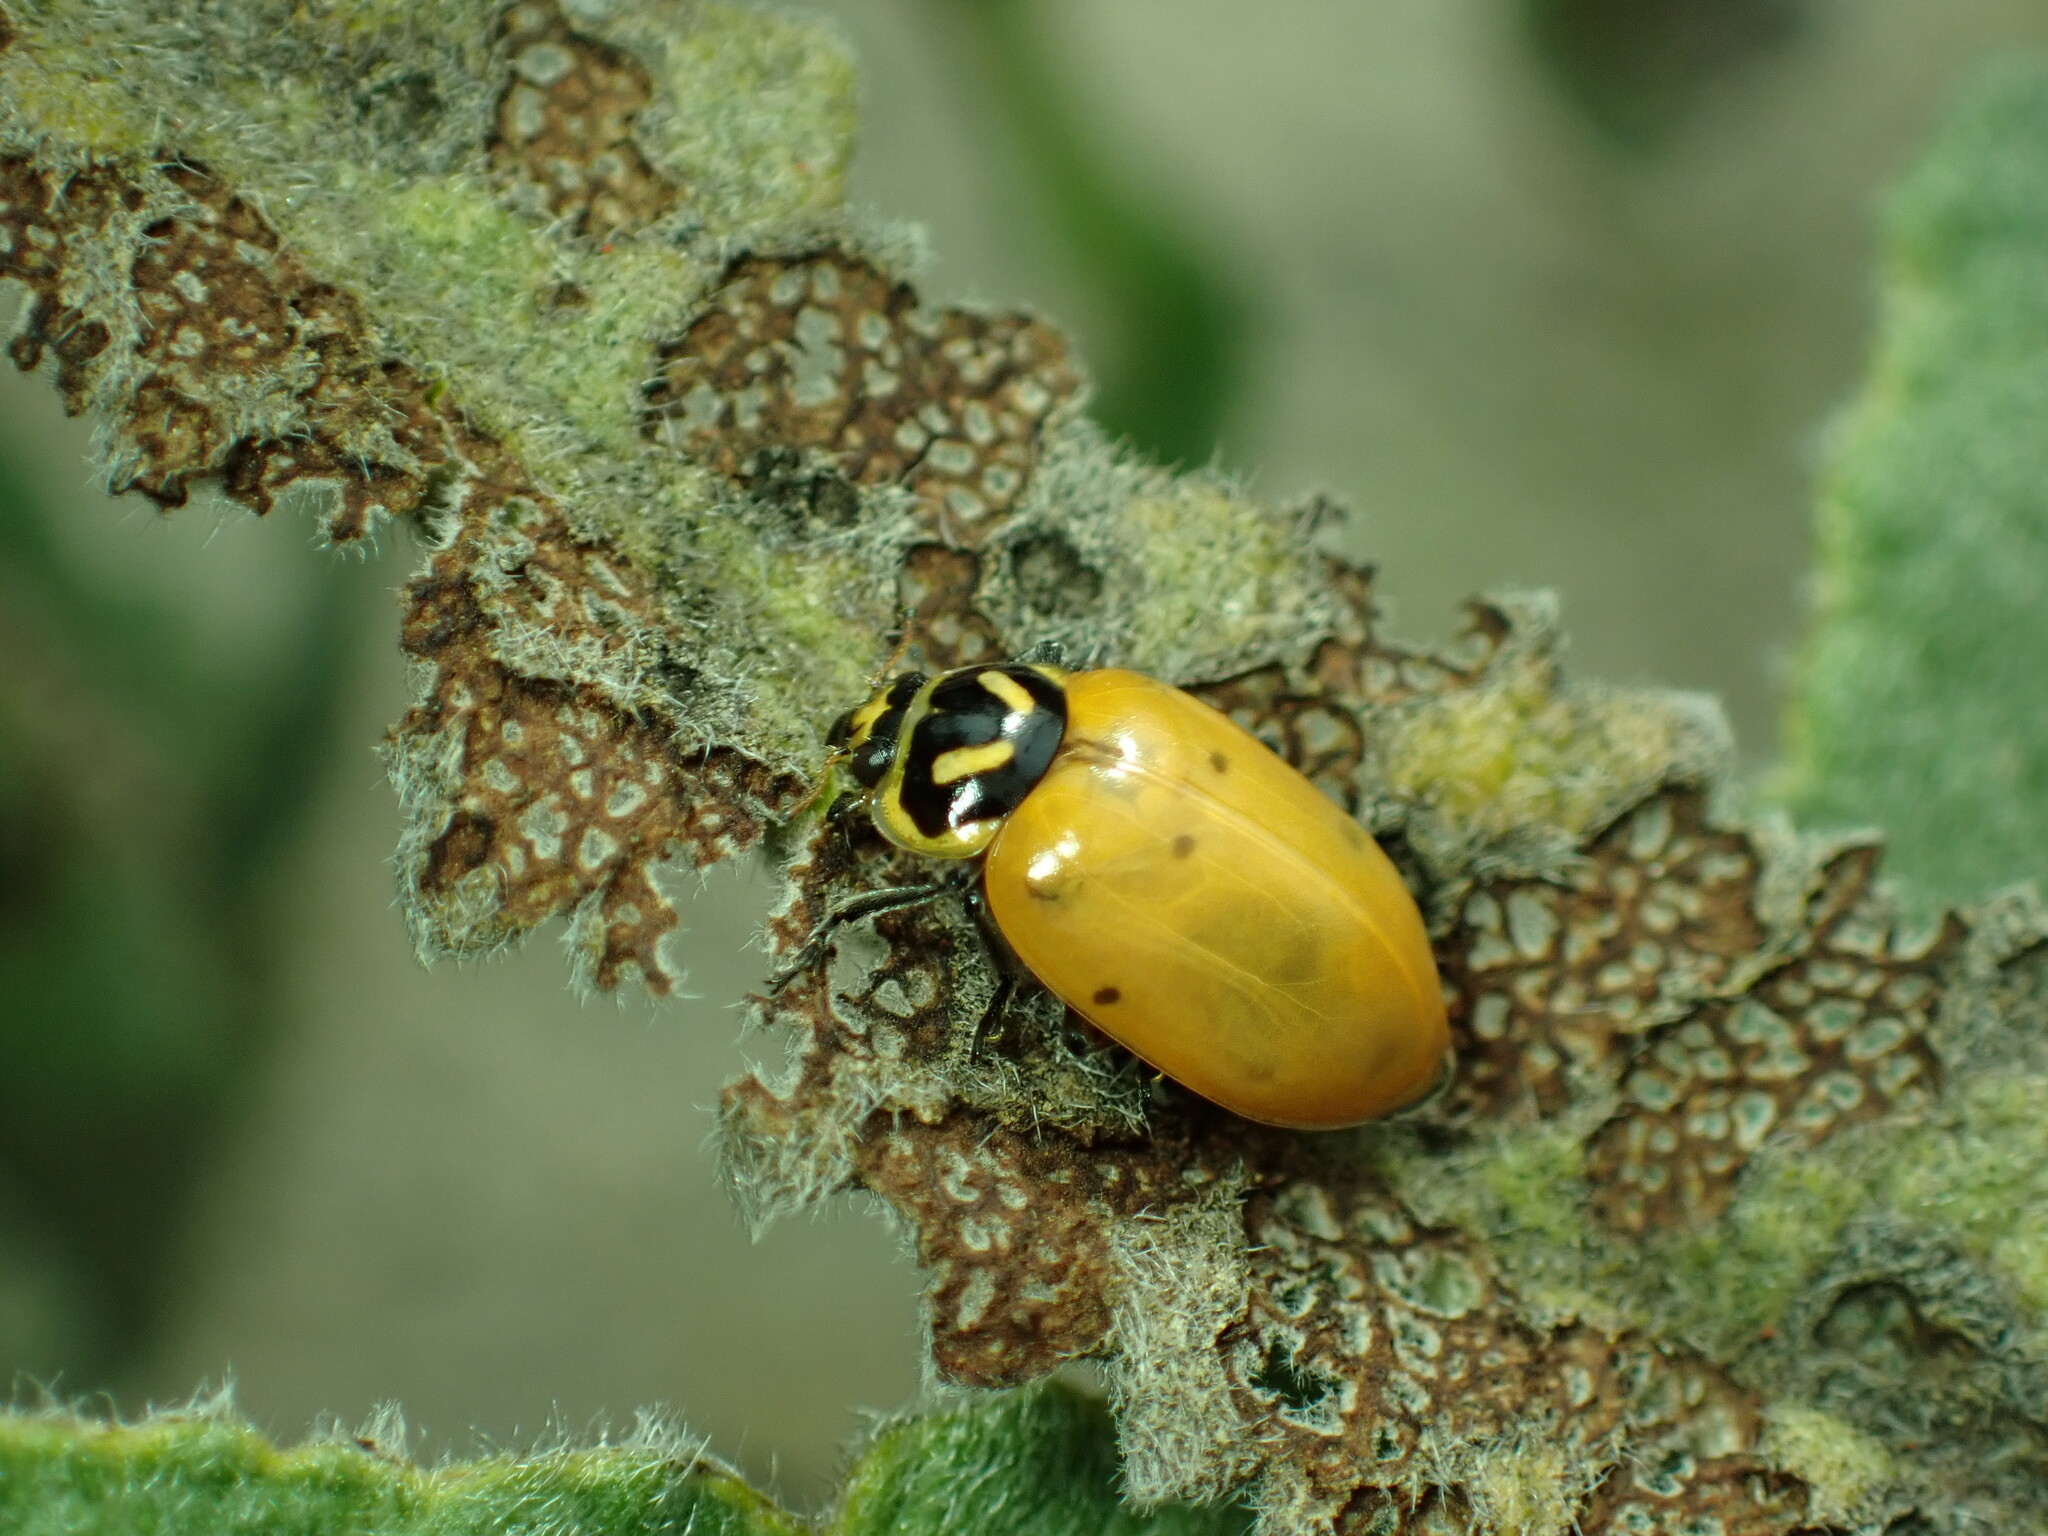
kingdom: Animalia
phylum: Arthropoda
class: Insecta
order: Coleoptera
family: Coccinellidae
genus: Hippodamia
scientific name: Hippodamia convergens
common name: Convergent lady beetle
